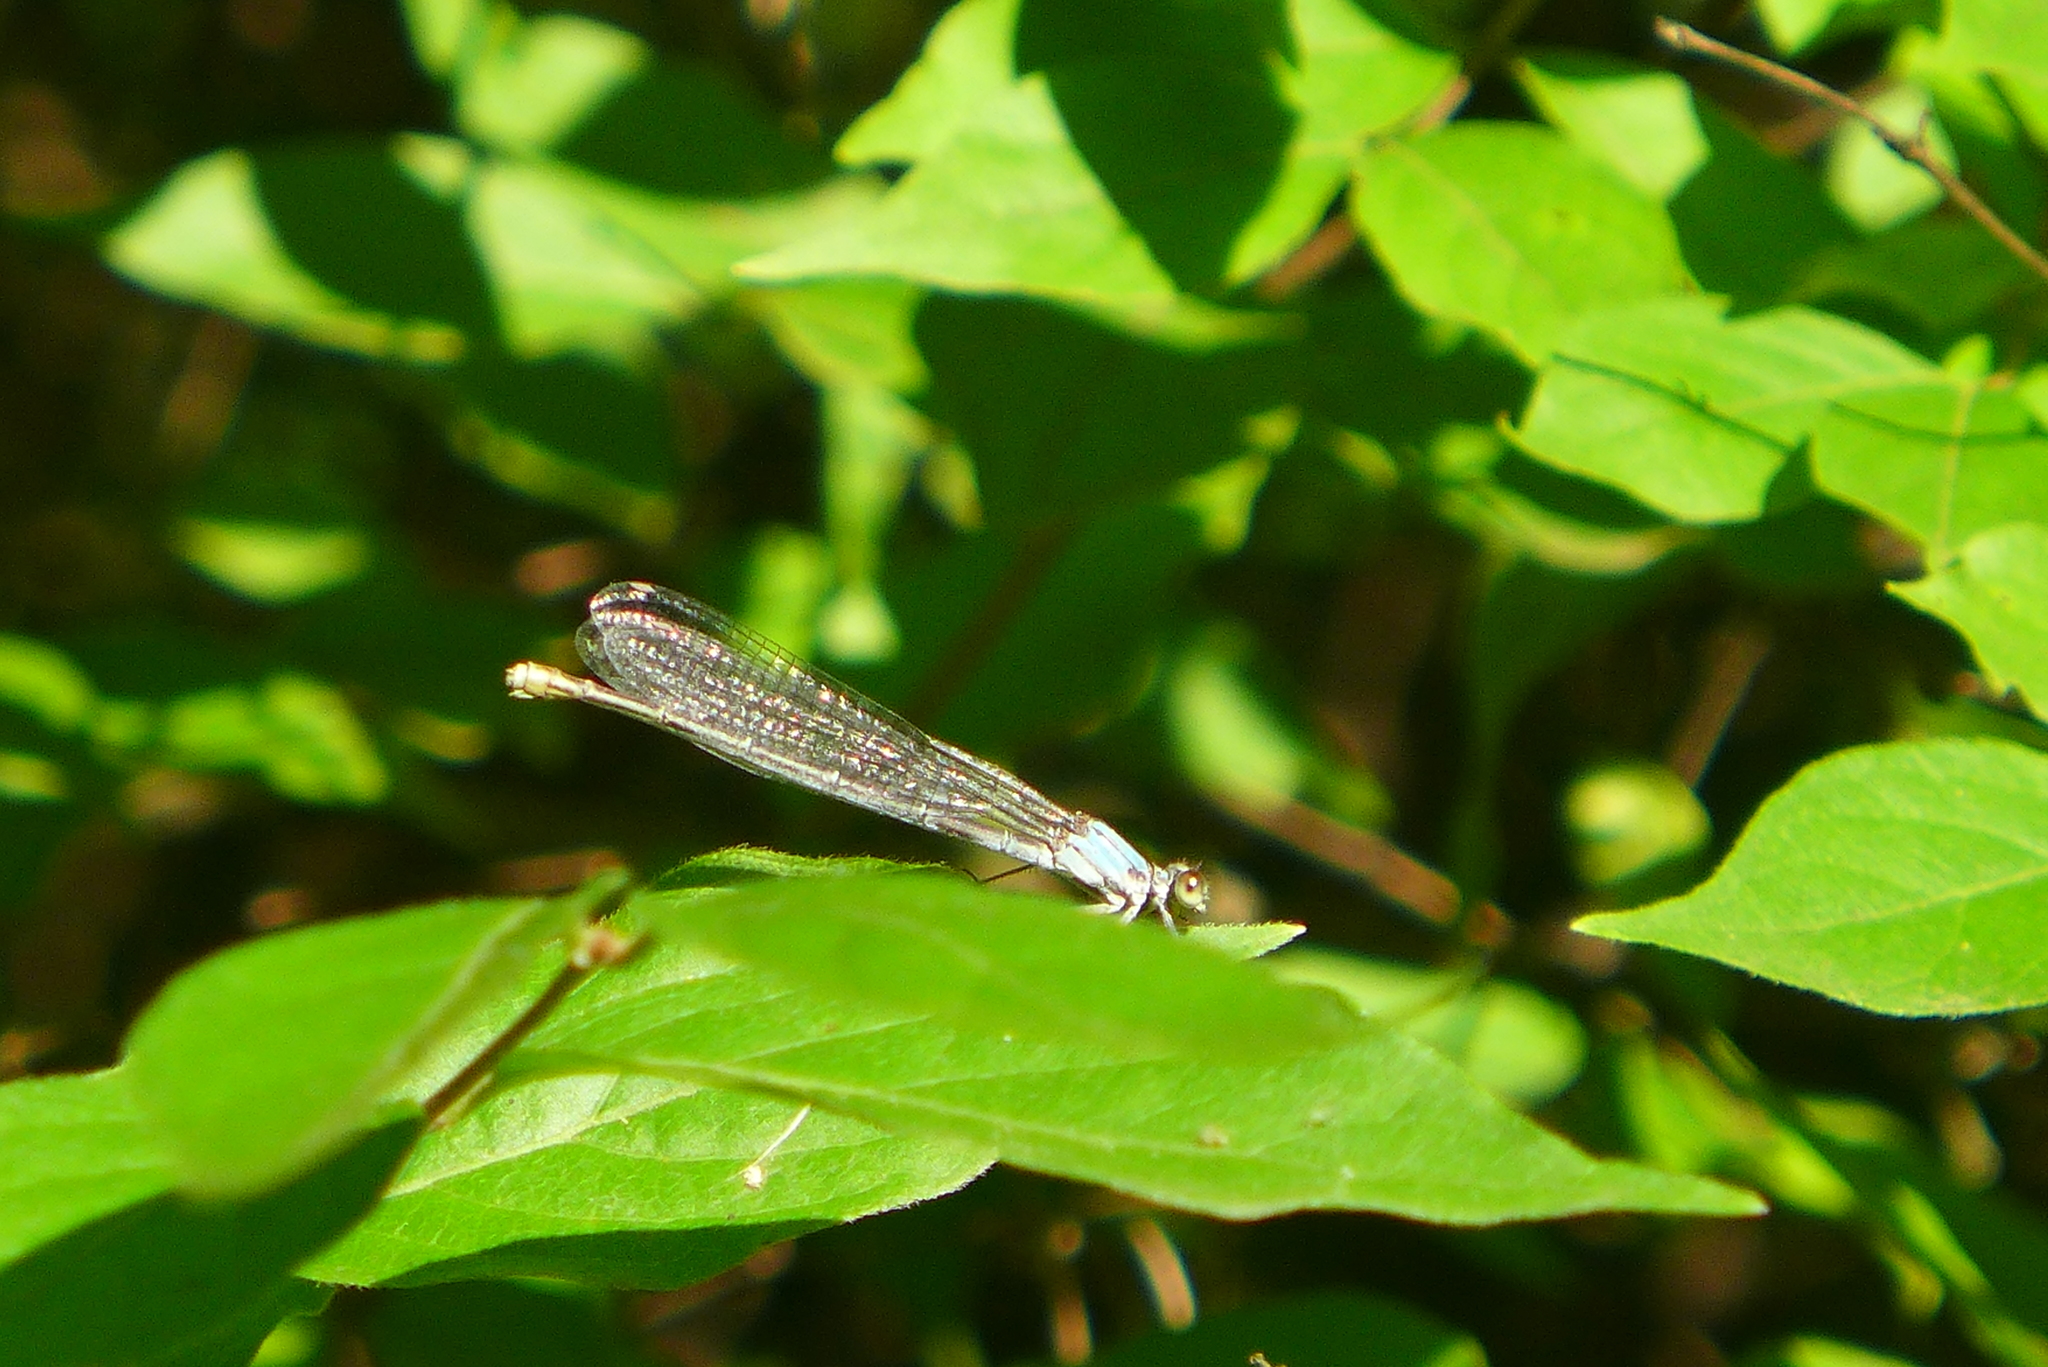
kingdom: Animalia
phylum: Arthropoda
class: Insecta
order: Odonata
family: Coenagrionidae
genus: Argia
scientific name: Argia
